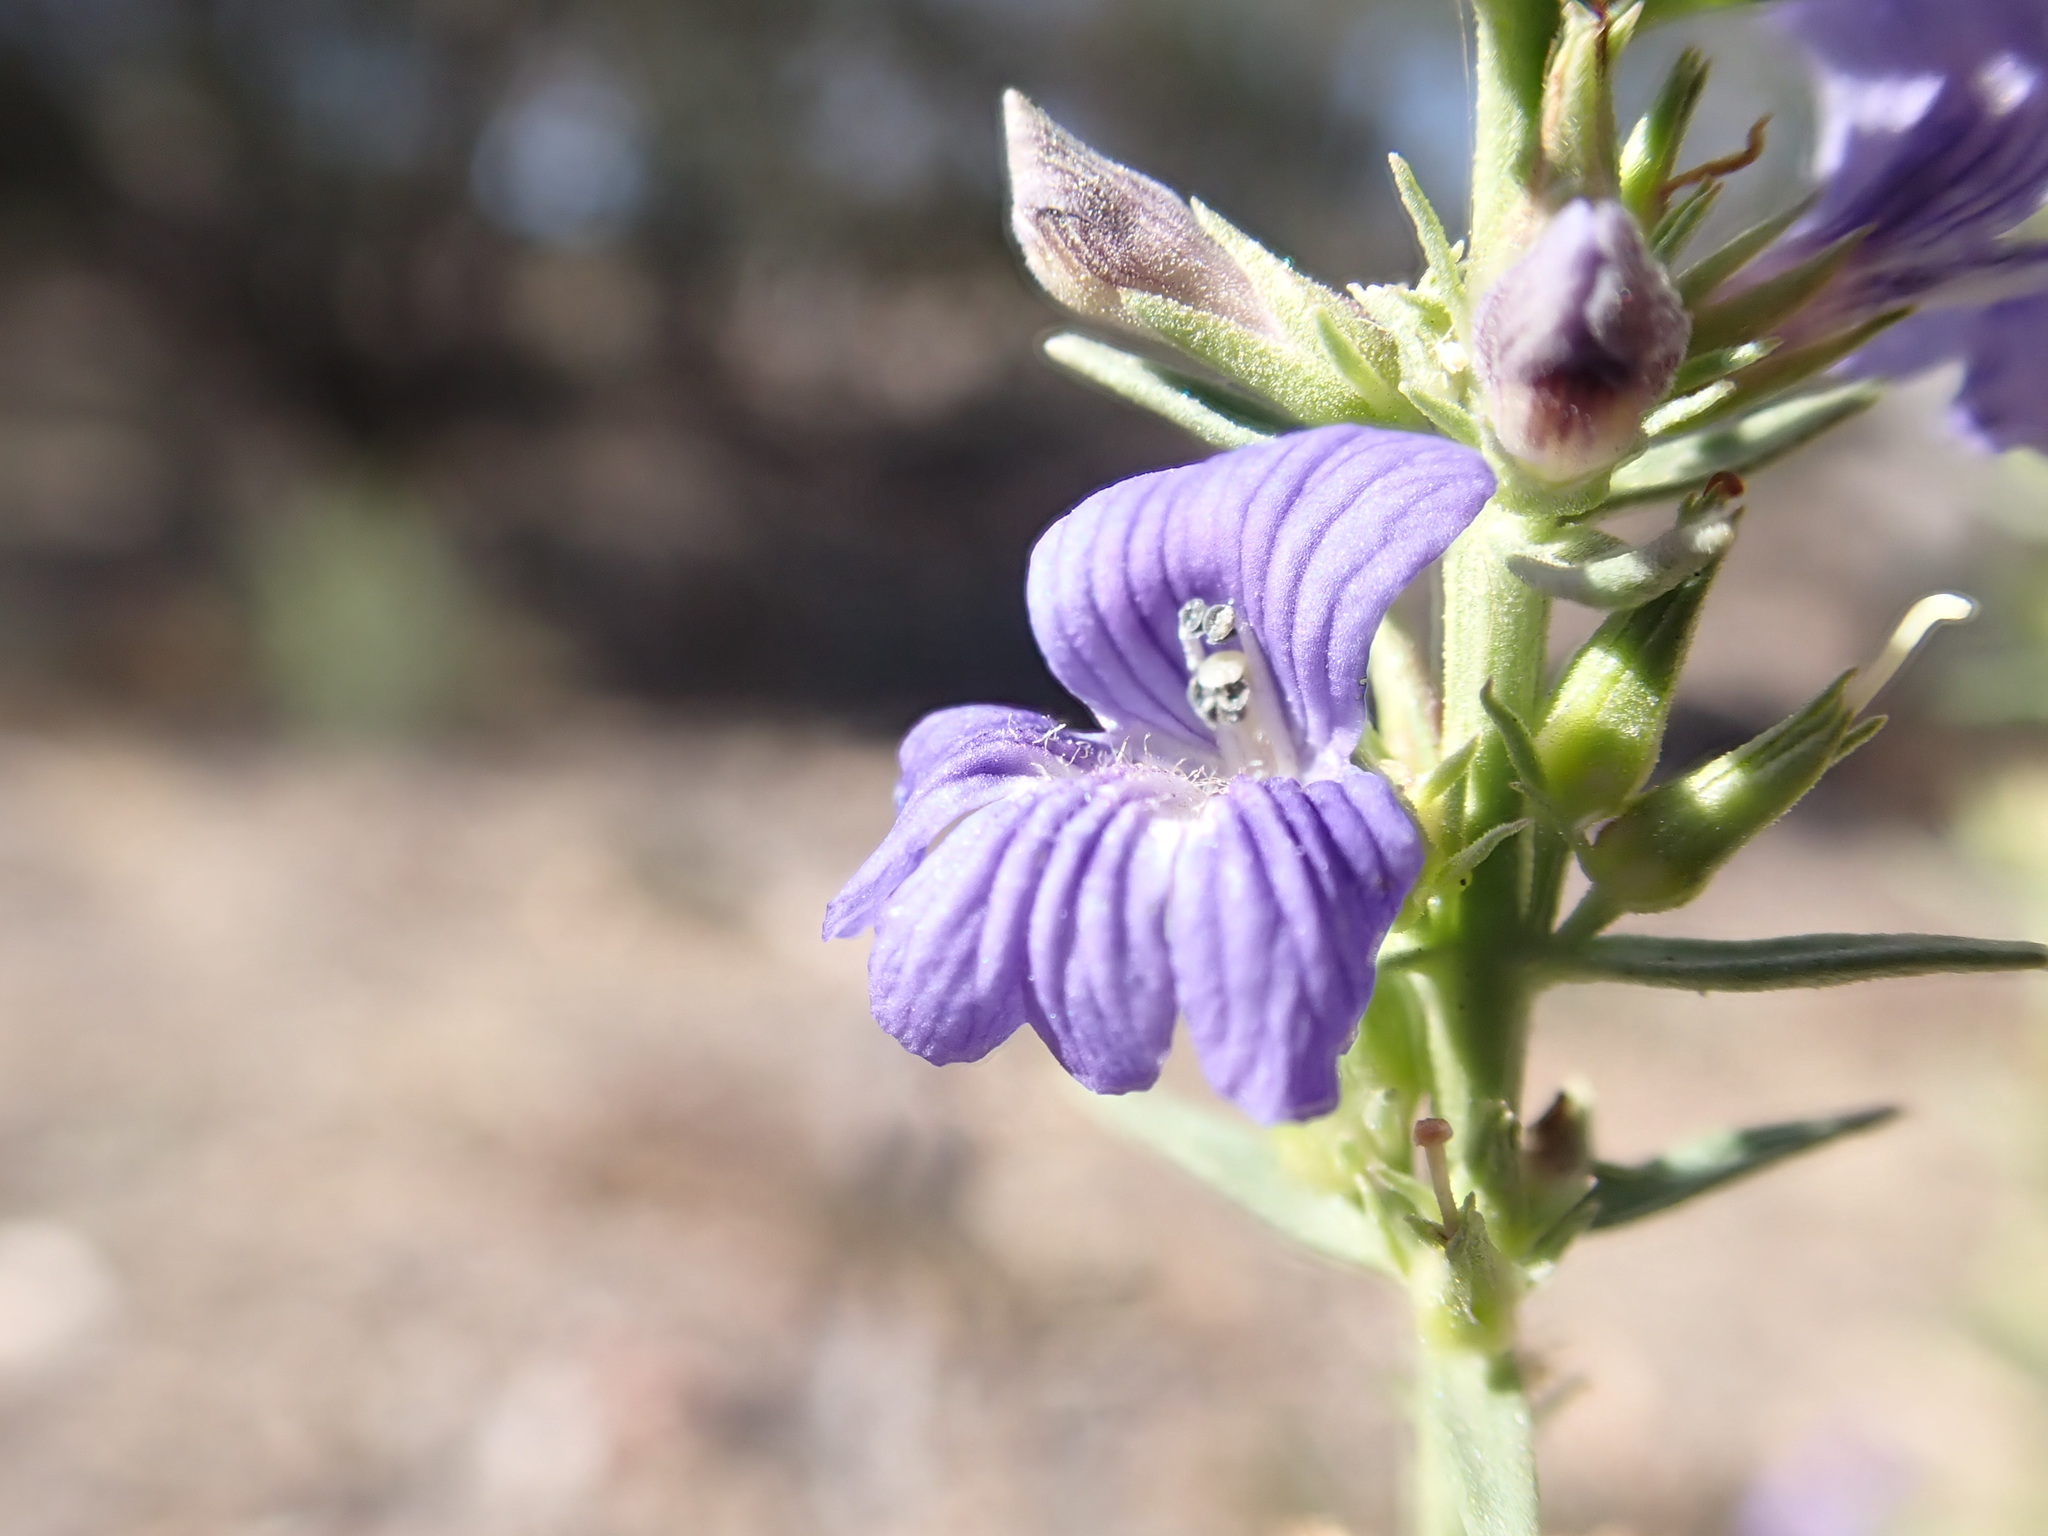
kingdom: Plantae
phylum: Tracheophyta
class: Magnoliopsida
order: Lamiales
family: Plantaginaceae
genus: Stemodia
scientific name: Stemodia florulenta
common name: Bluerod
